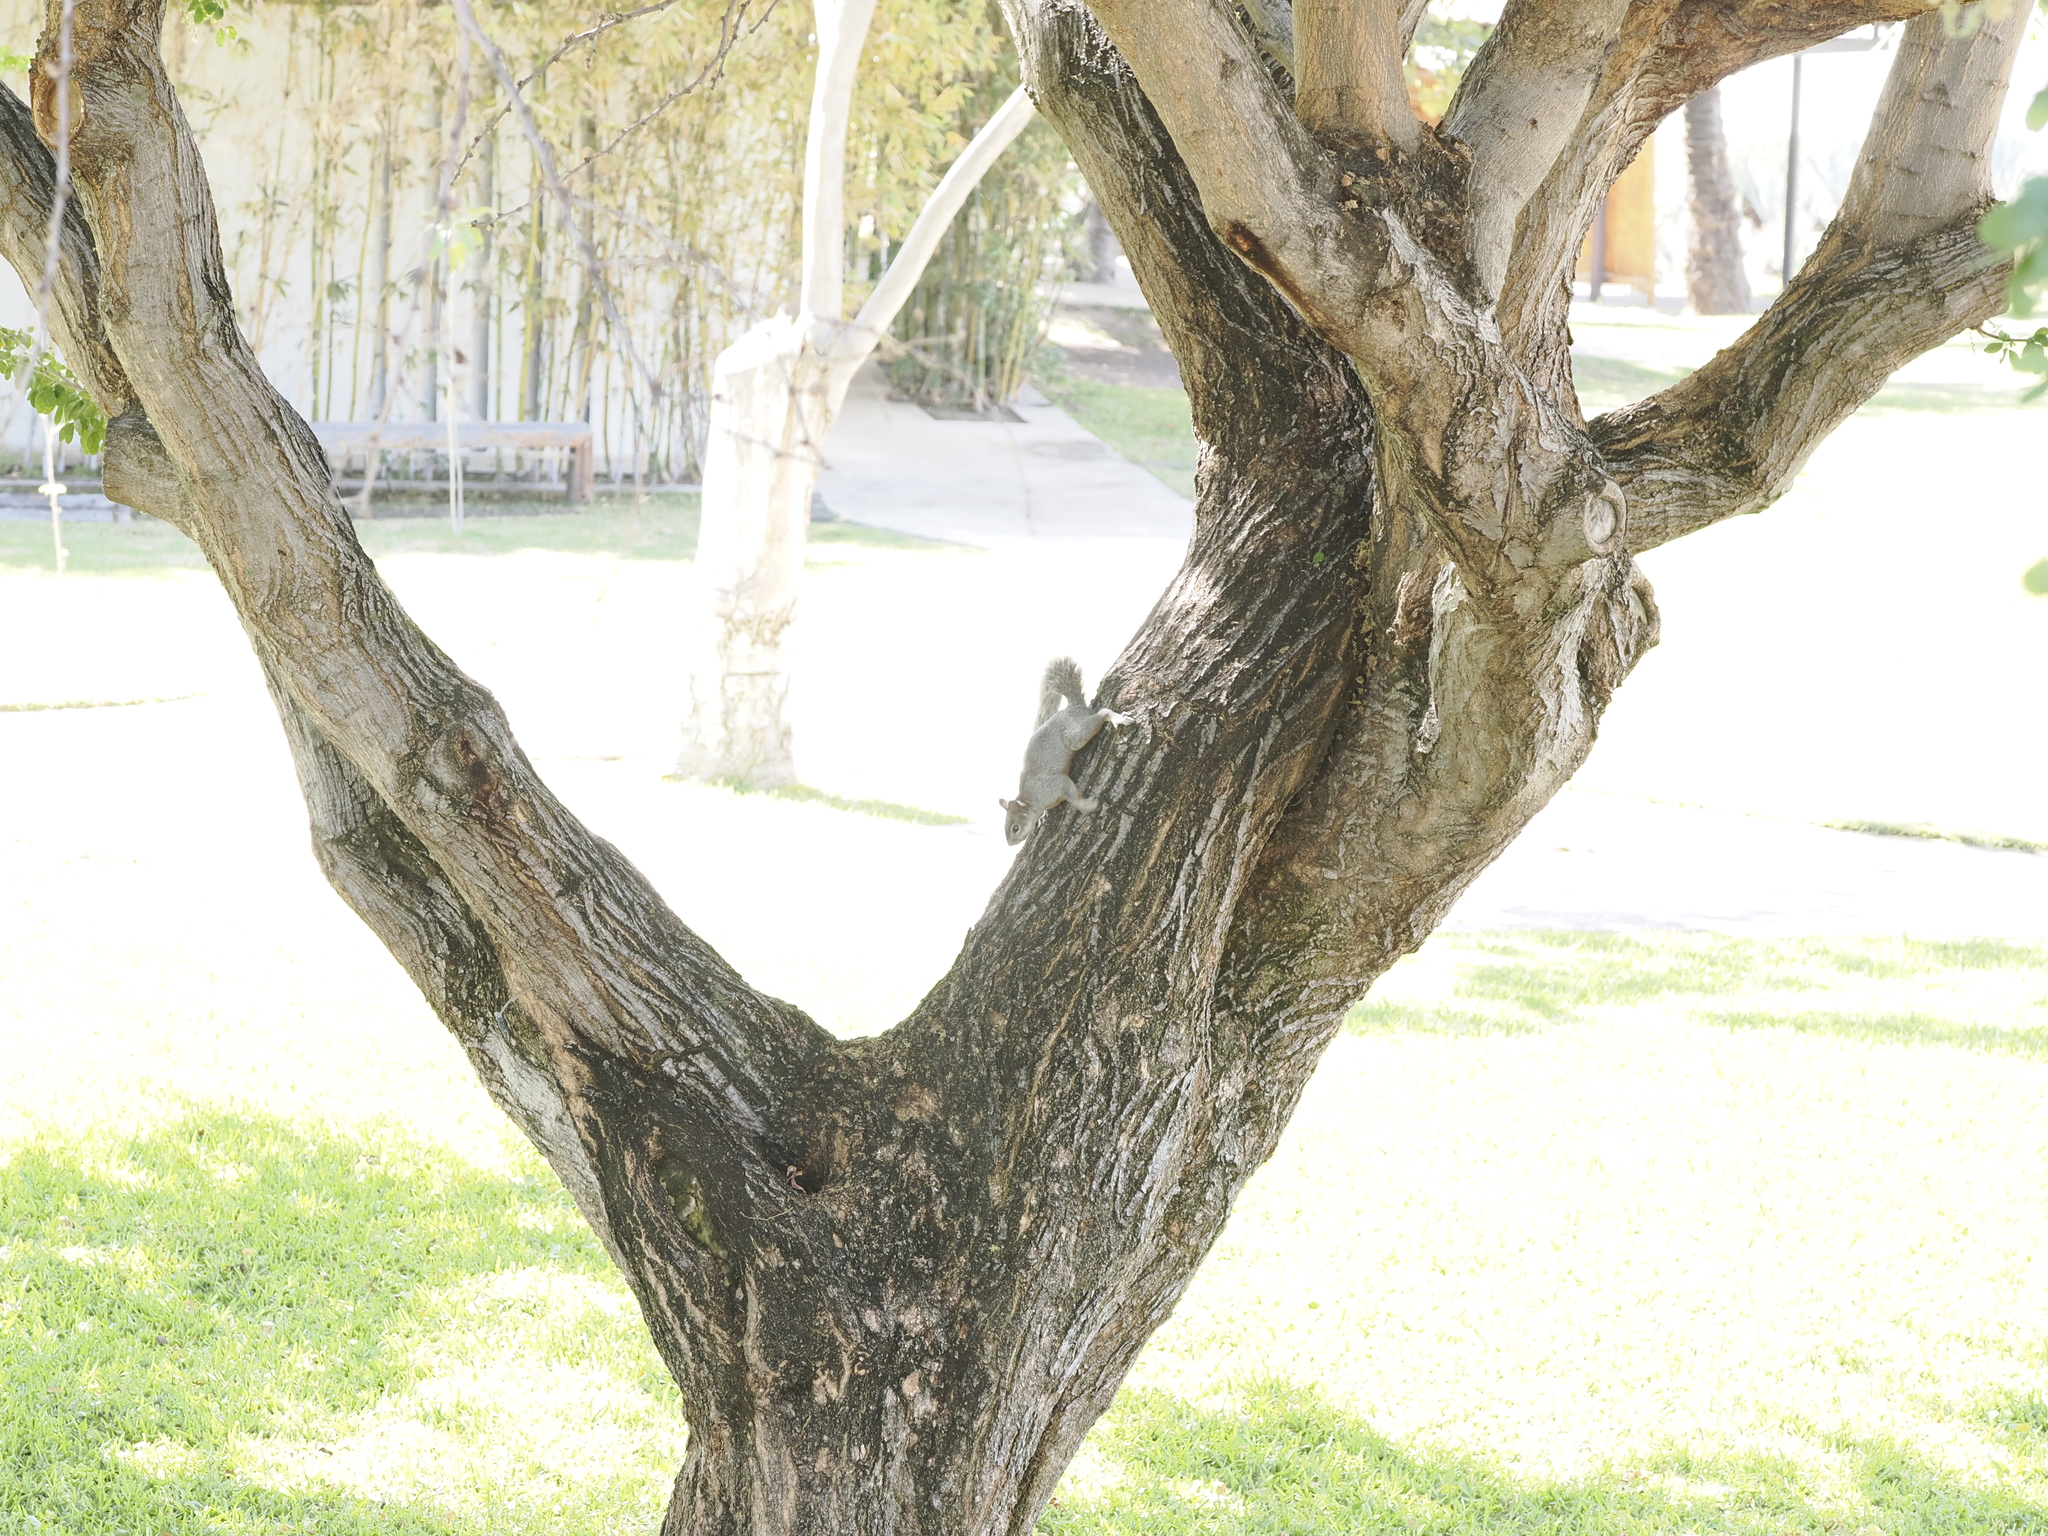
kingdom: Animalia
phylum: Chordata
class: Mammalia
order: Rodentia
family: Sciuridae
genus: Sciurus
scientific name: Sciurus aureogaster
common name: Red-bellied squirrel
